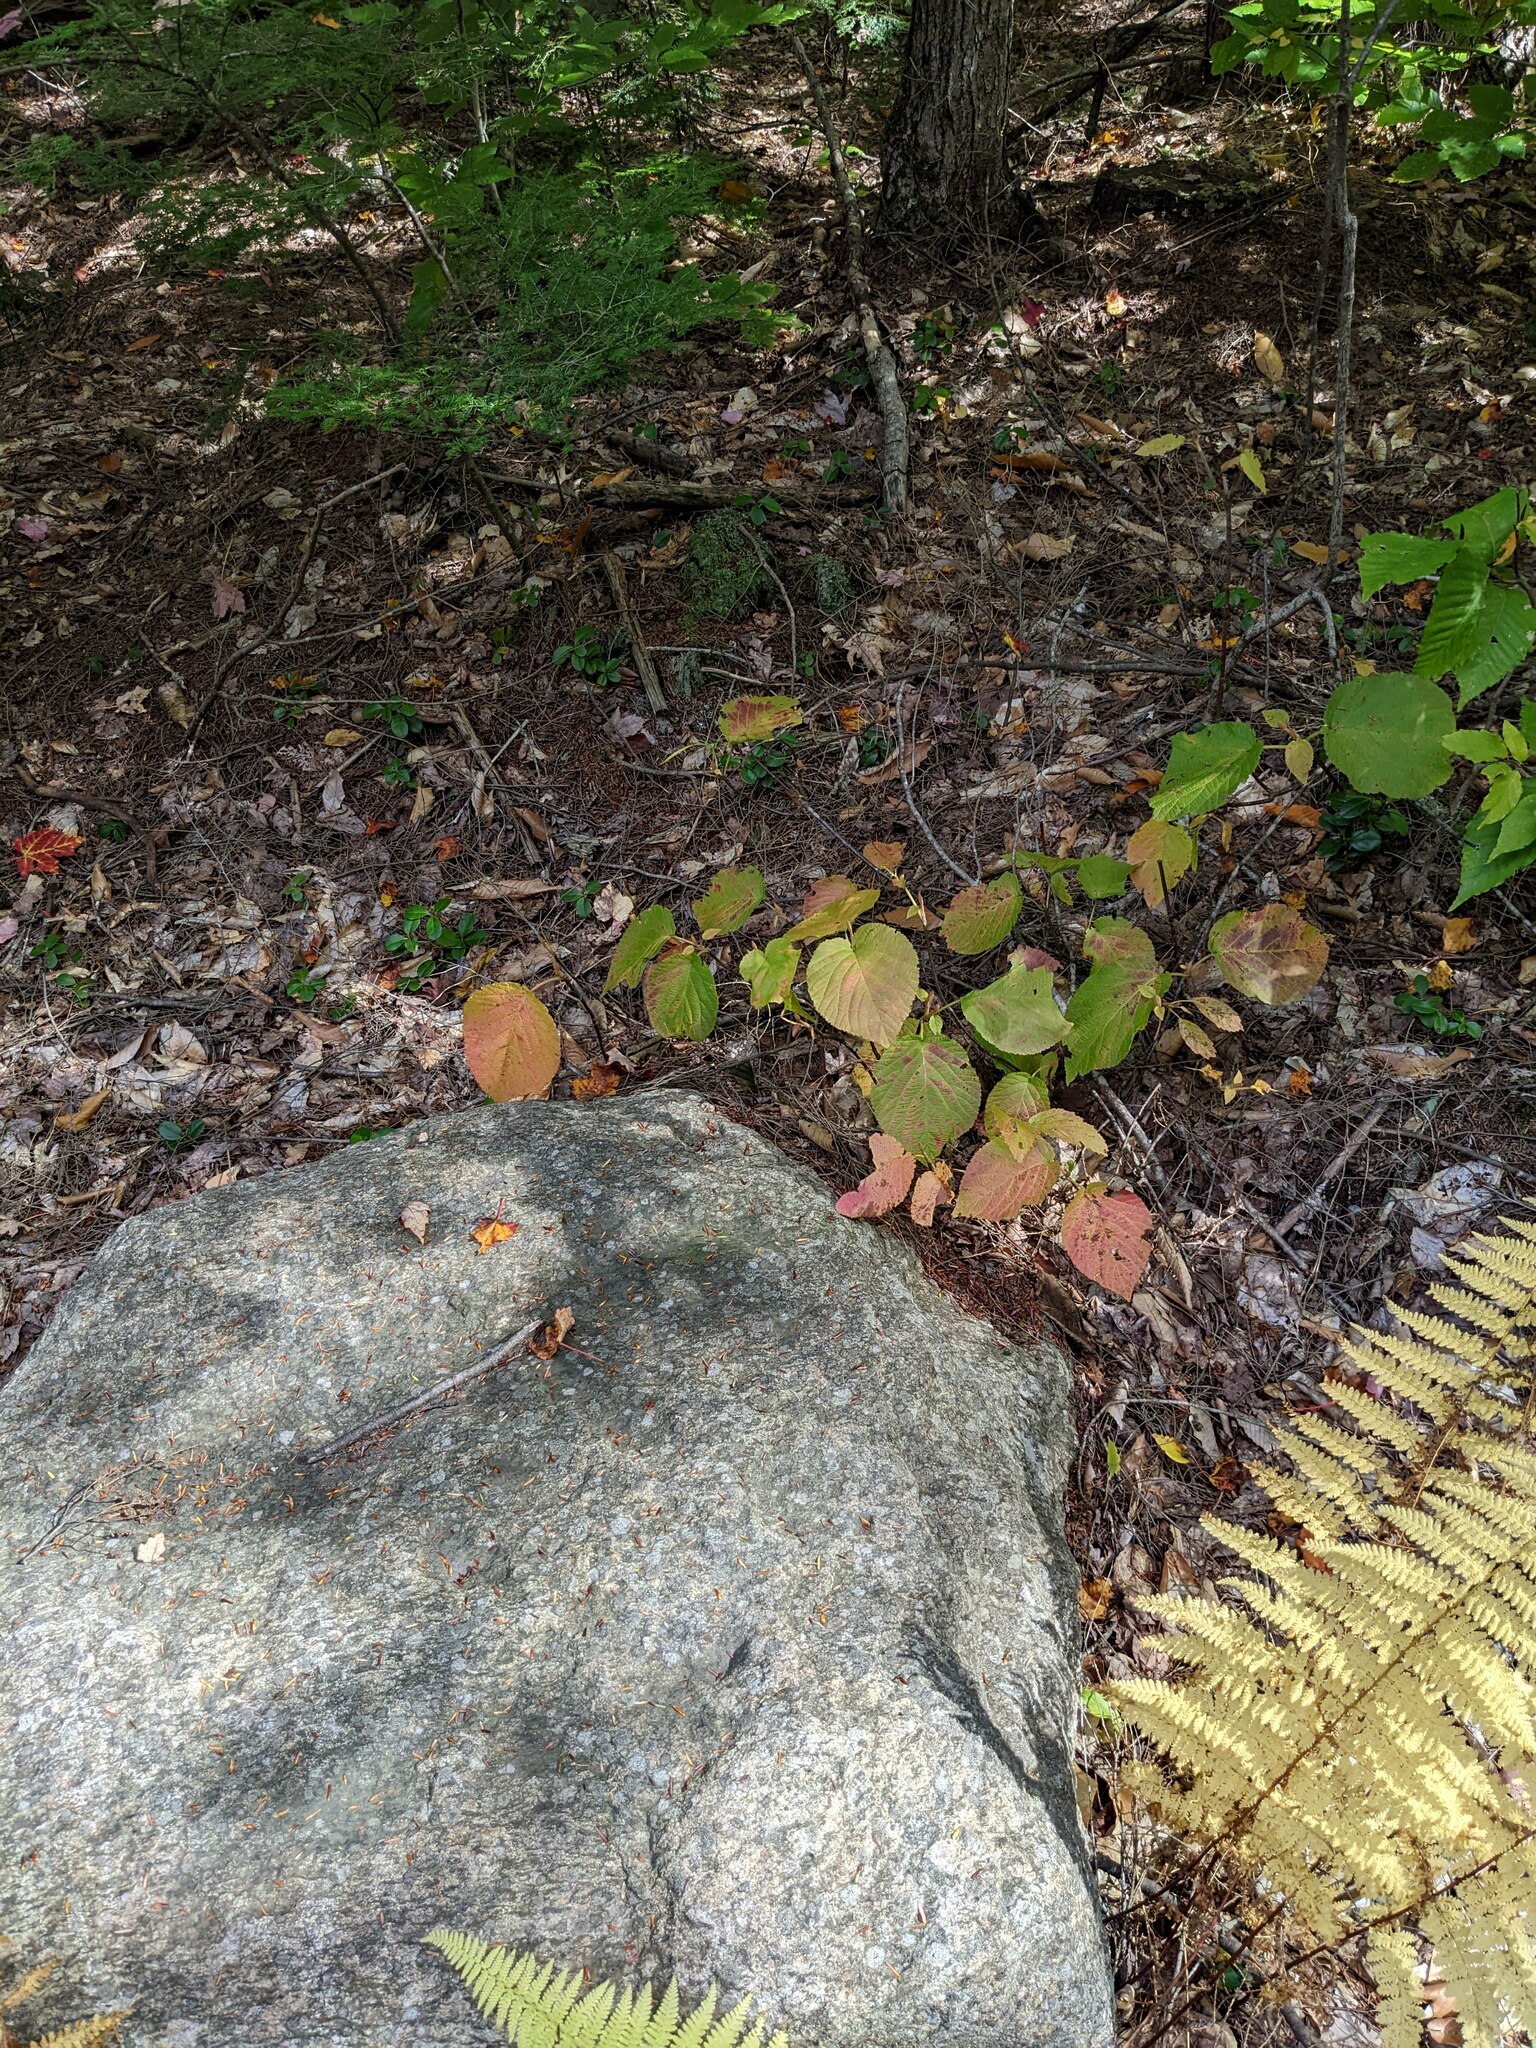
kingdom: Plantae
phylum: Tracheophyta
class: Magnoliopsida
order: Dipsacales
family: Viburnaceae
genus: Viburnum
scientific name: Viburnum lantanoides
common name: Hobblebush
